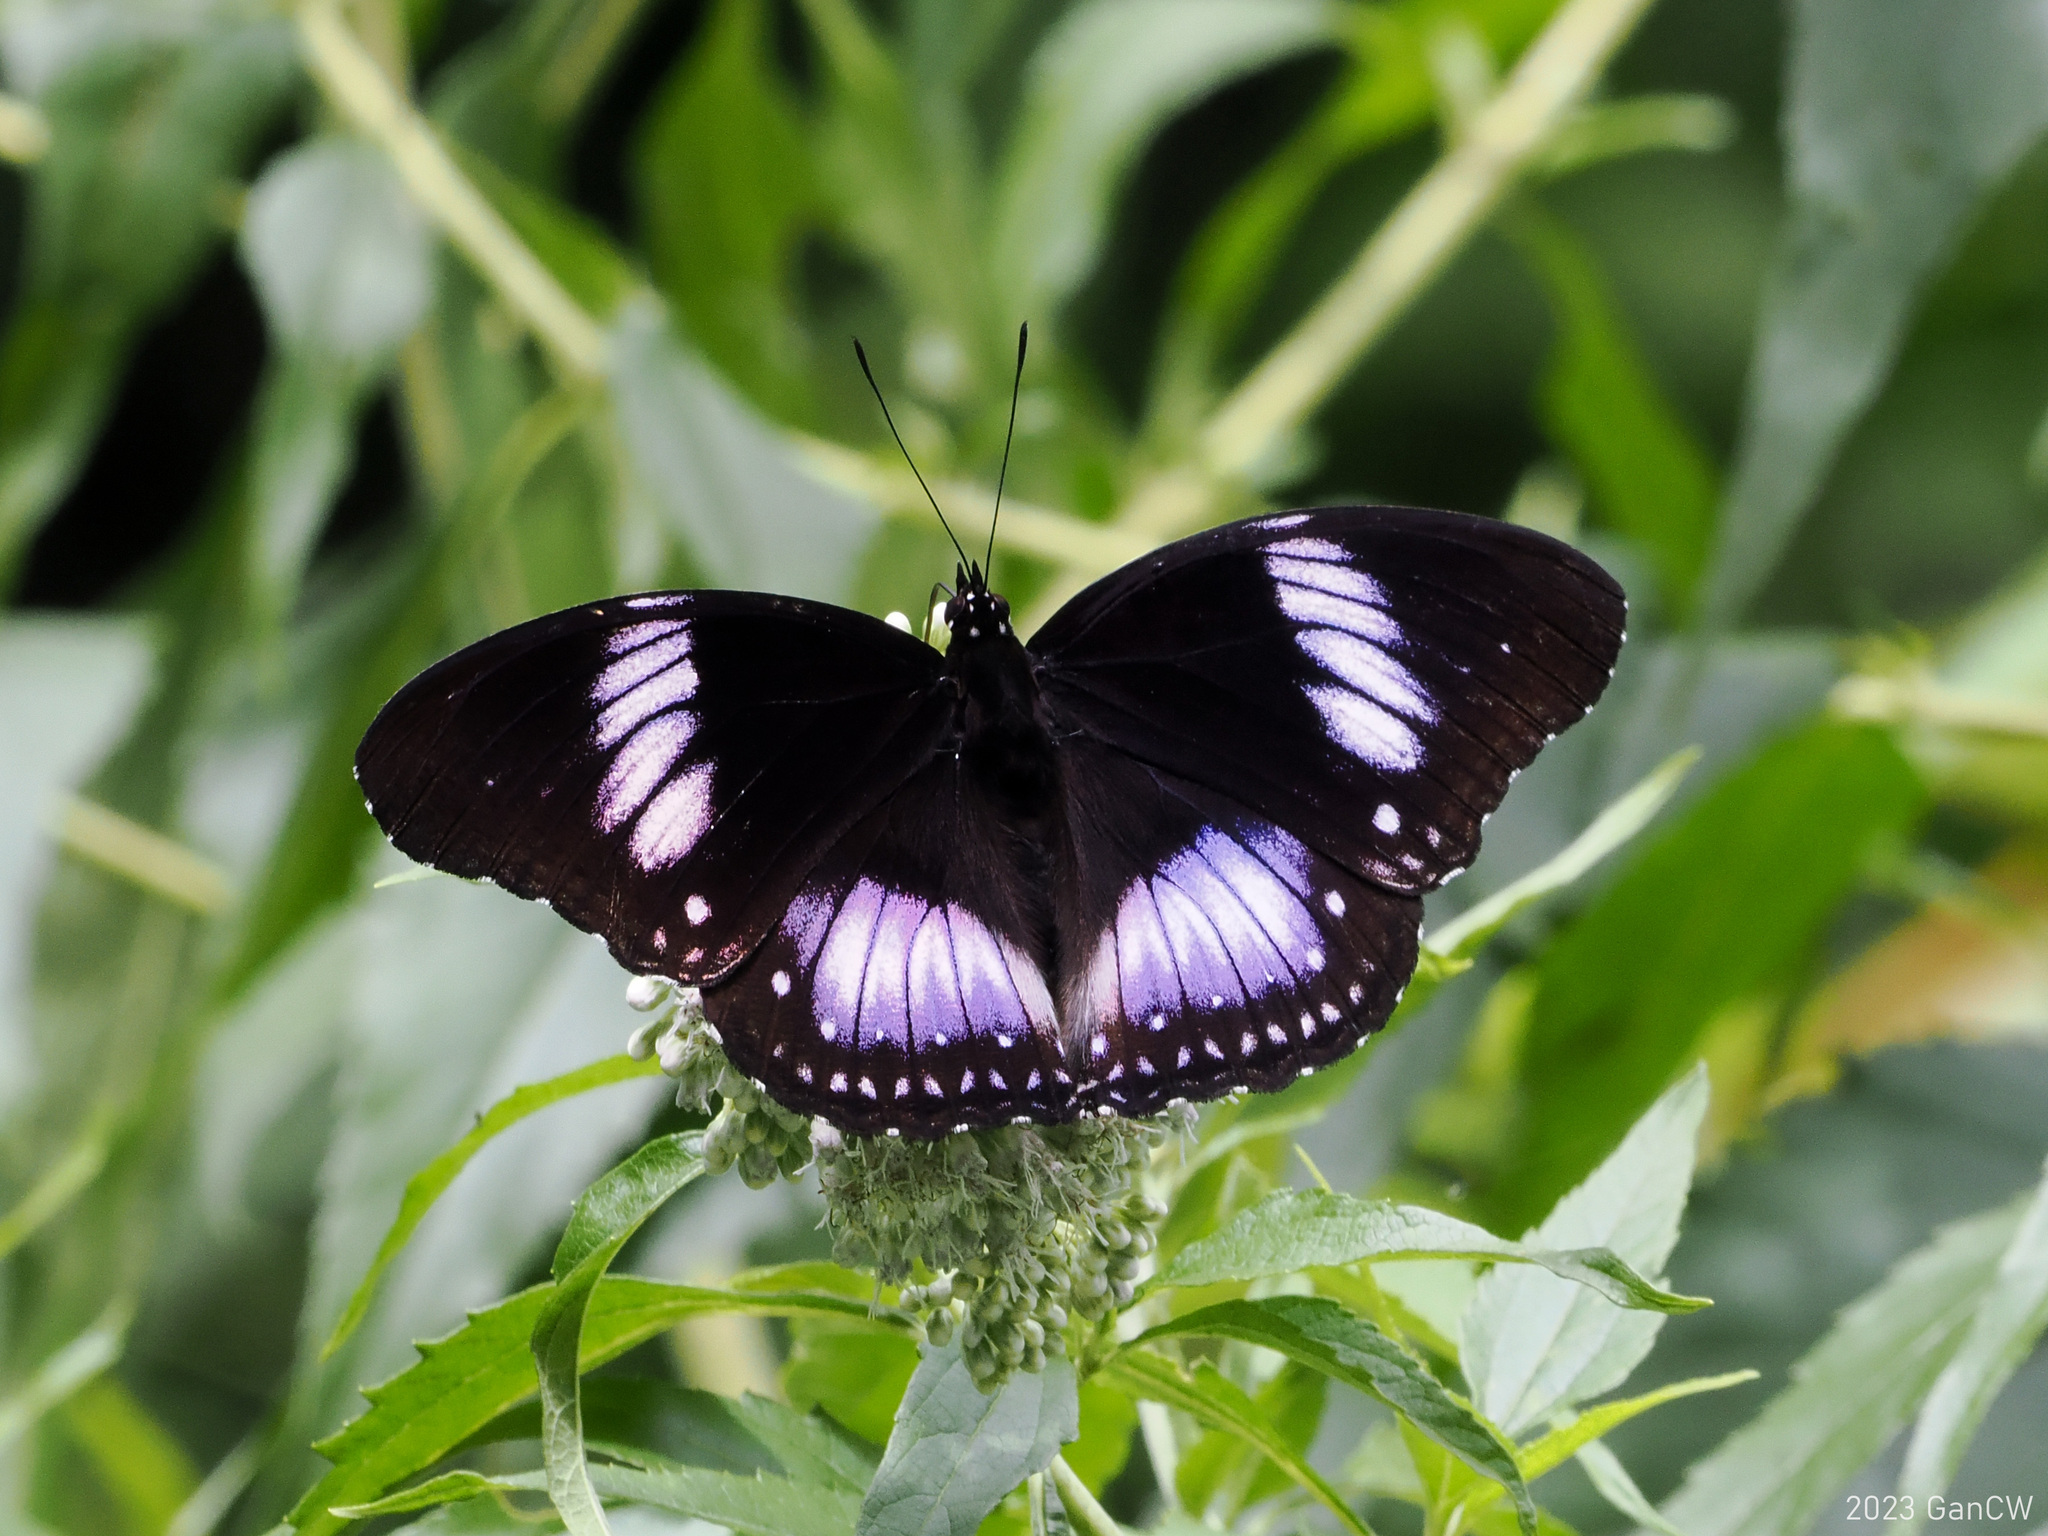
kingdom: Animalia
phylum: Arthropoda
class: Insecta
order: Lepidoptera
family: Nymphalidae
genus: Hypolimnas
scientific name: Hypolimnas diomea
